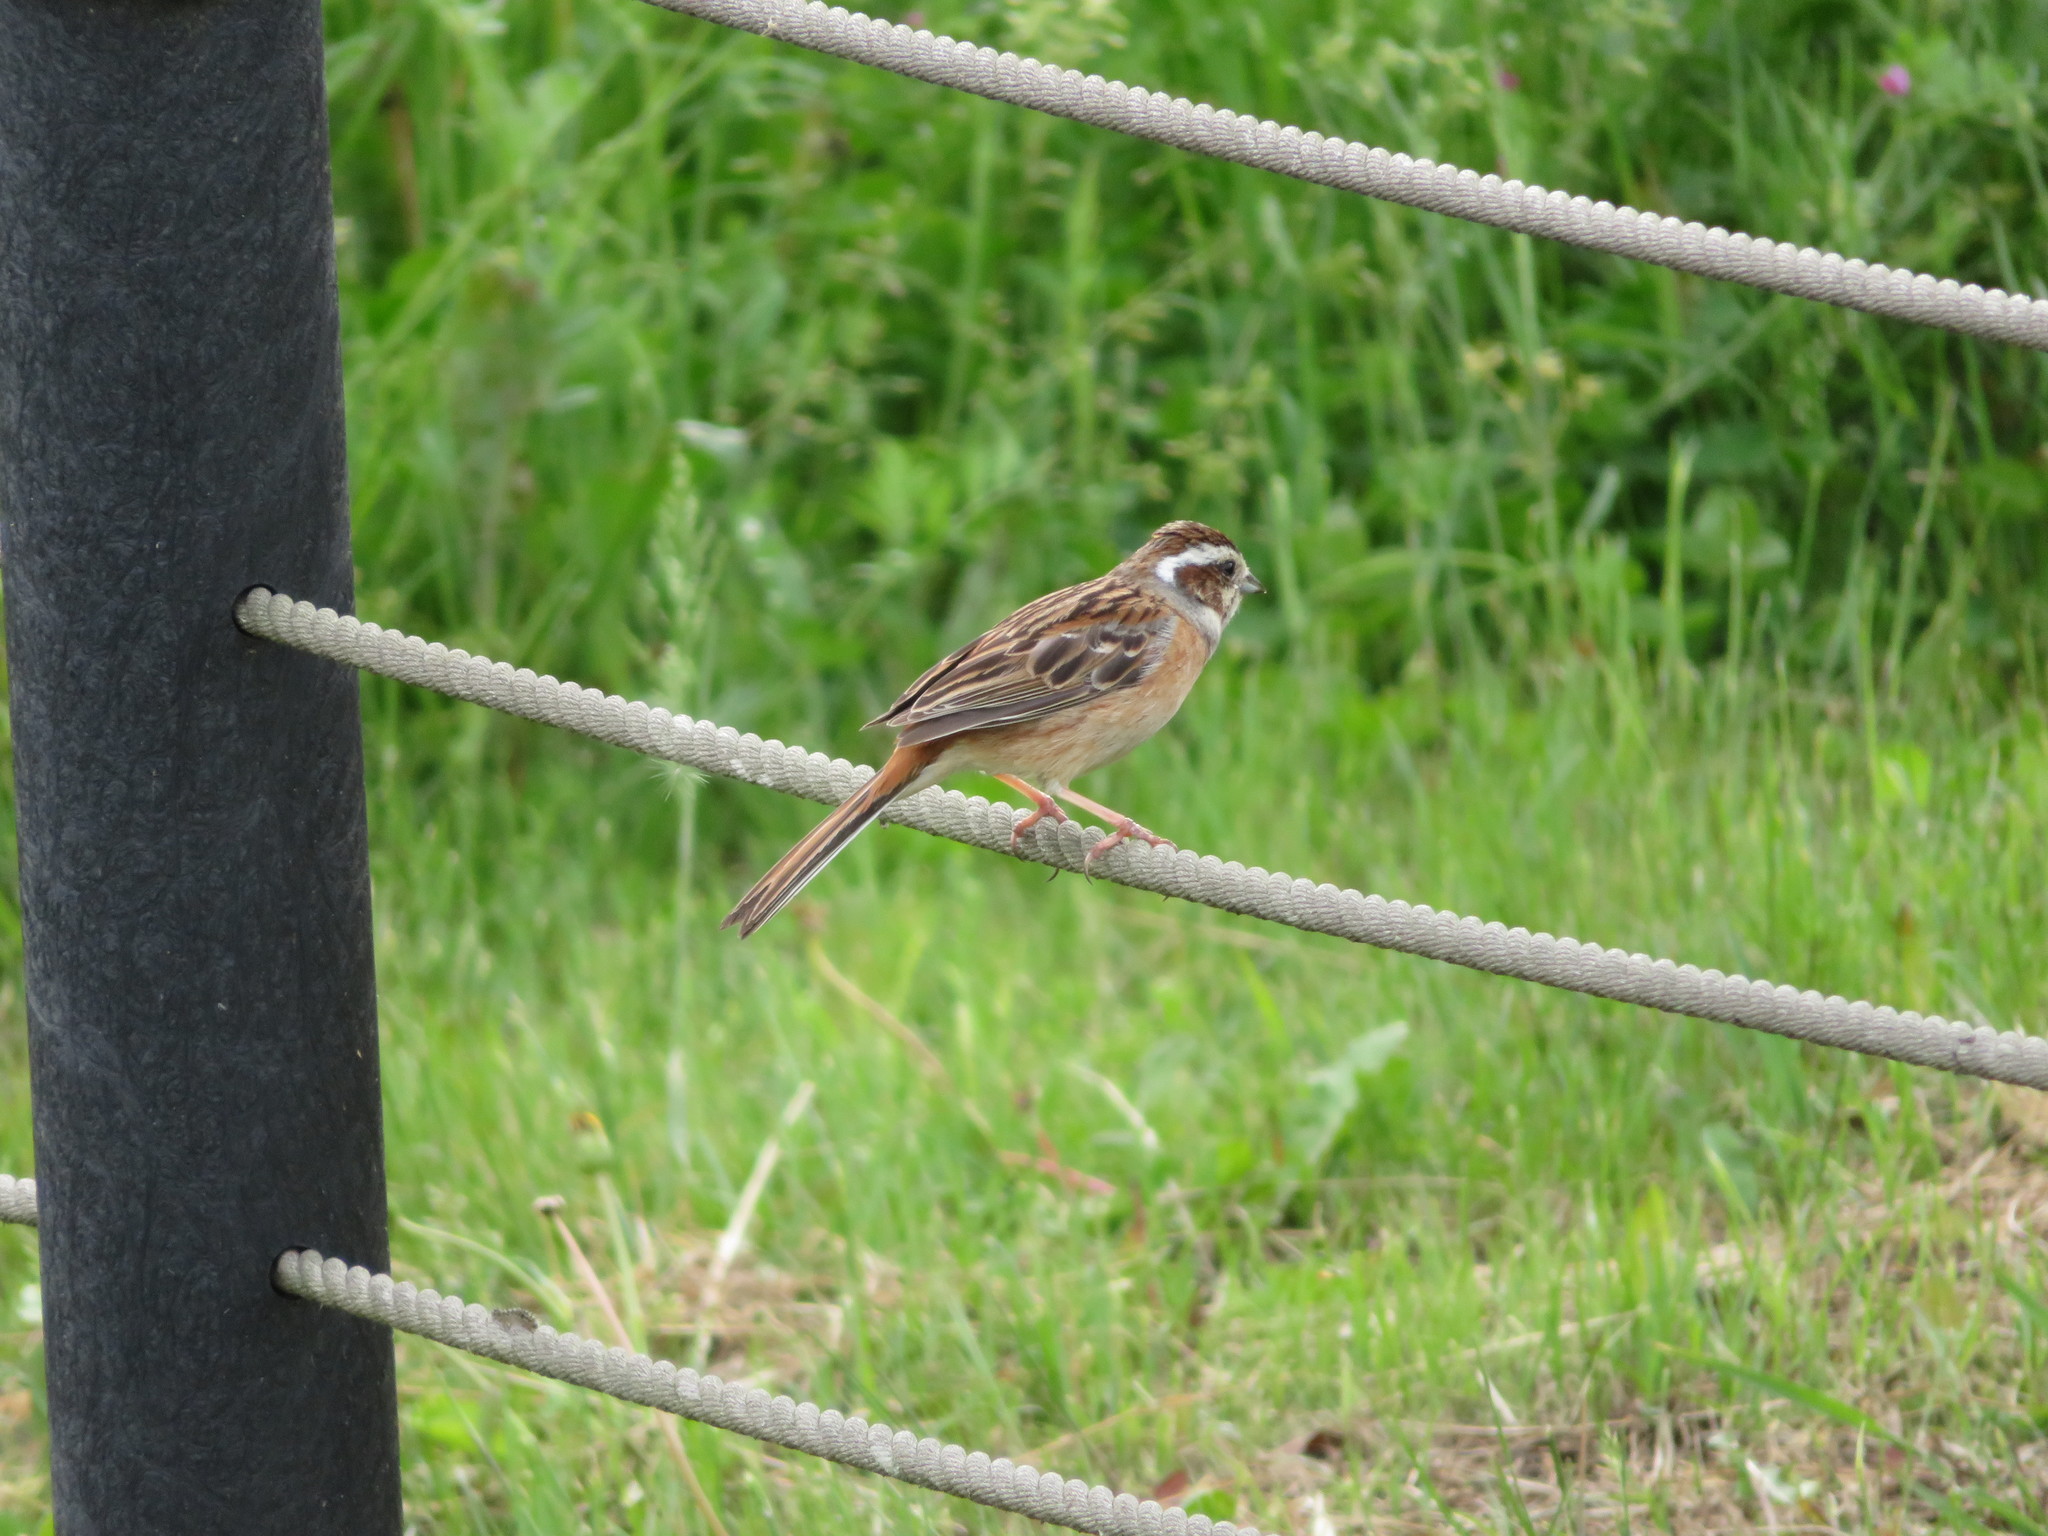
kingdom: Animalia
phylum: Chordata
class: Aves
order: Passeriformes
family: Emberizidae
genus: Emberiza
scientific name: Emberiza cioides
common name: Meadow bunting
